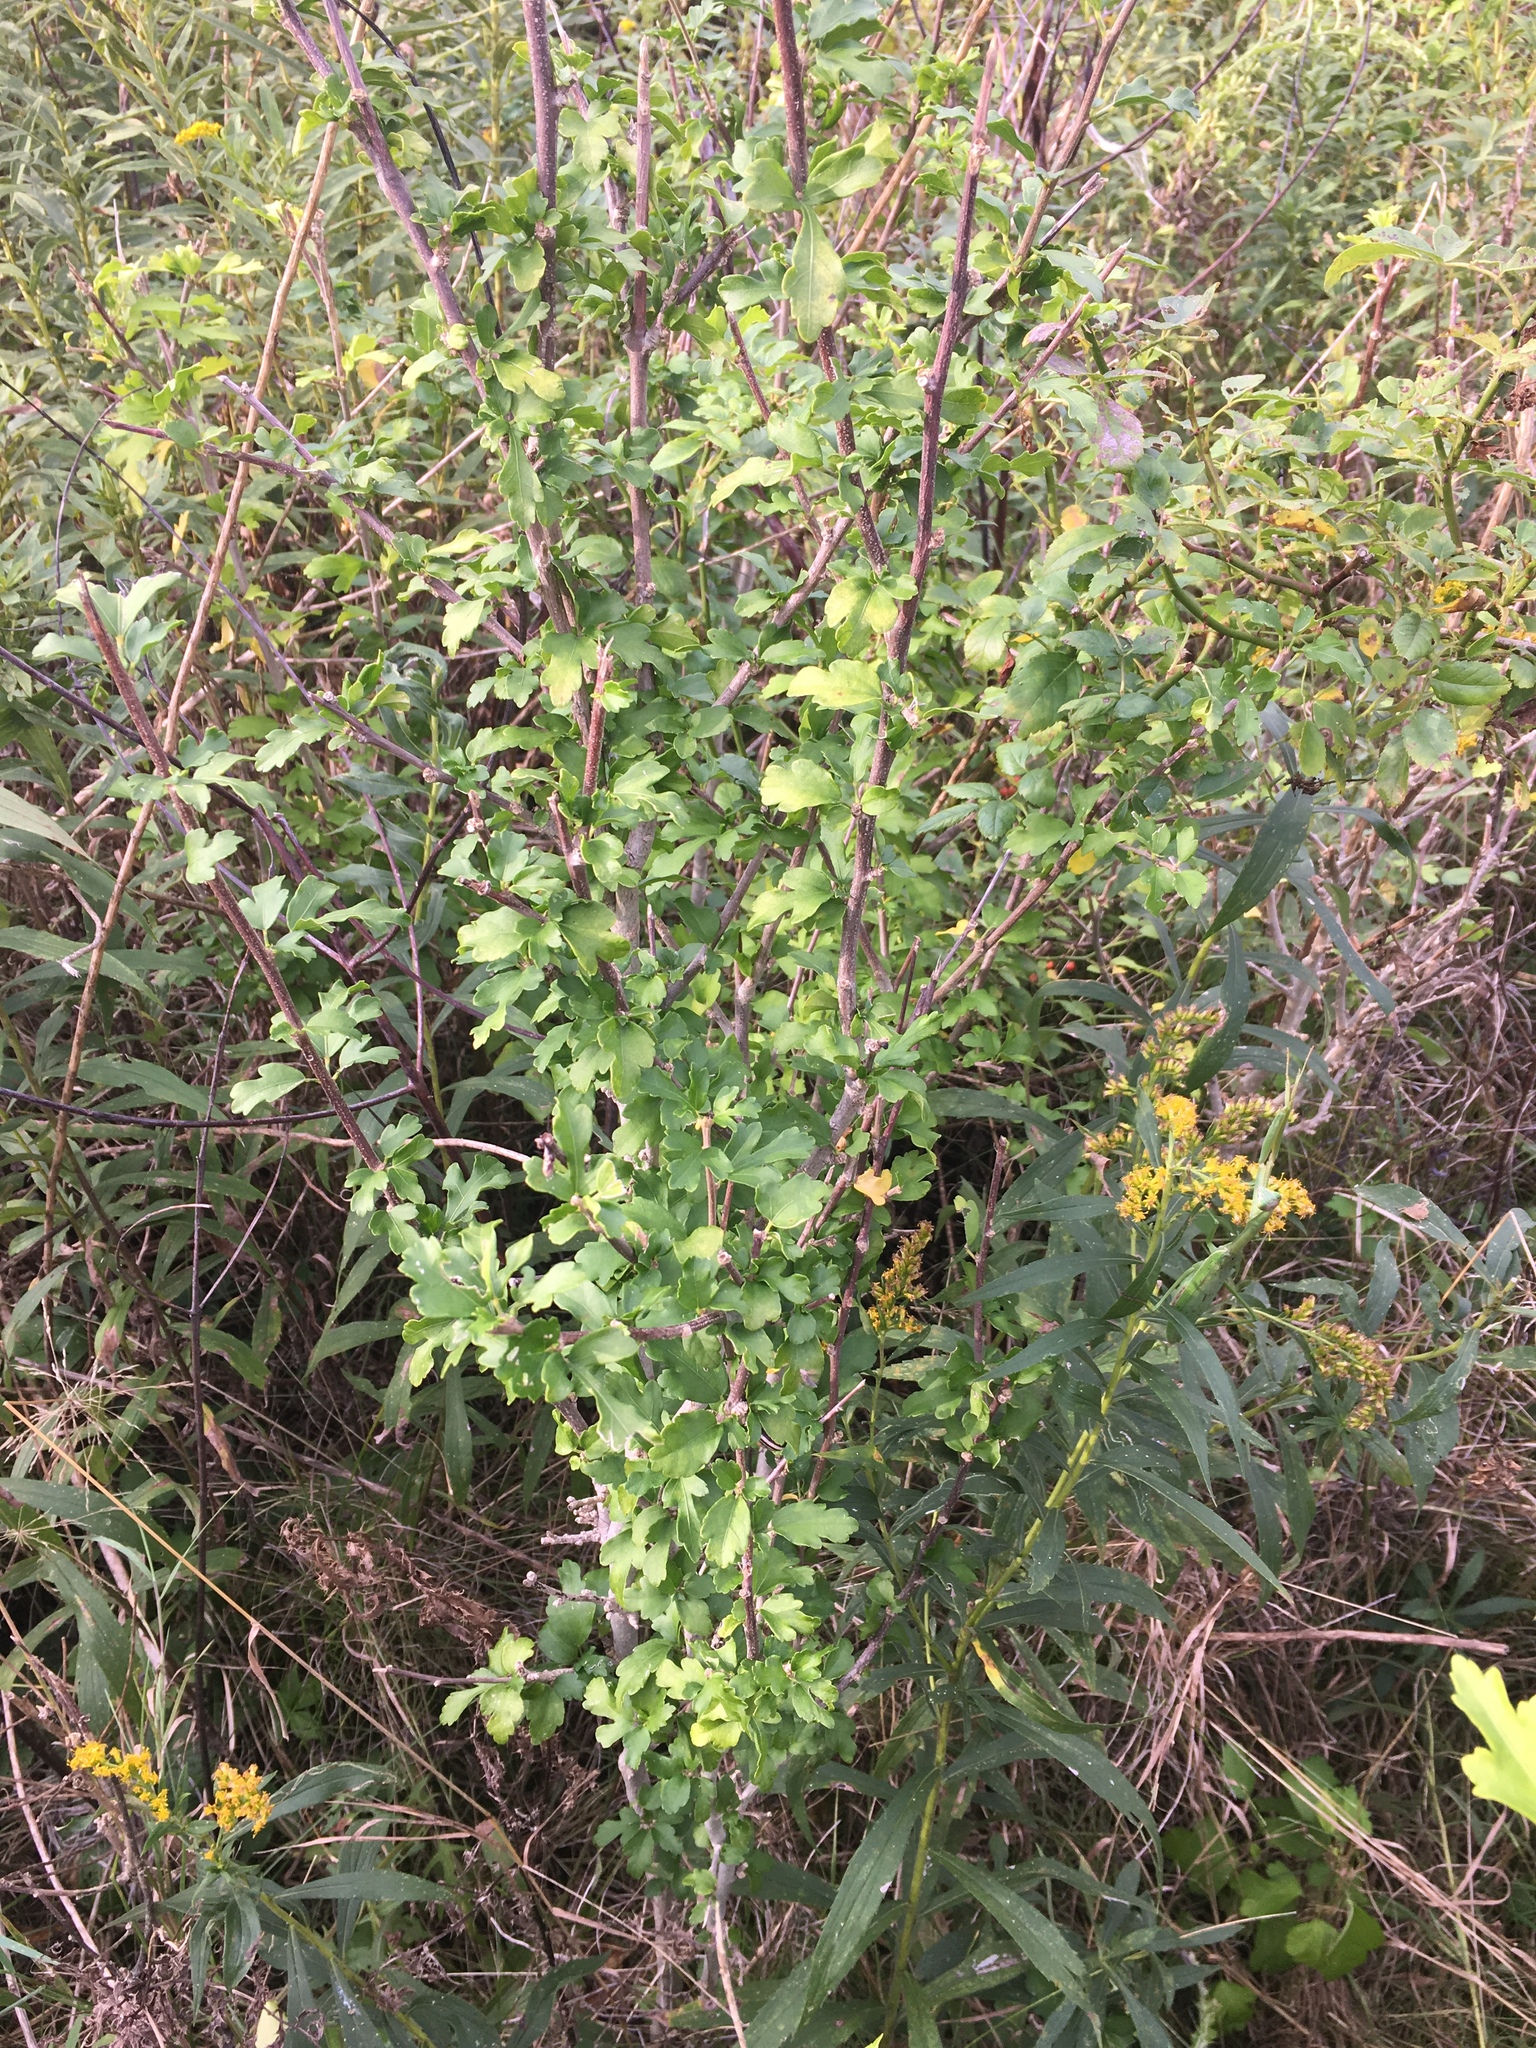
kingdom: Plantae
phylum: Tracheophyta
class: Magnoliopsida
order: Malvales
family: Malvaceae
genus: Hibiscus
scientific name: Hibiscus syriacus
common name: Syrian ketmia
